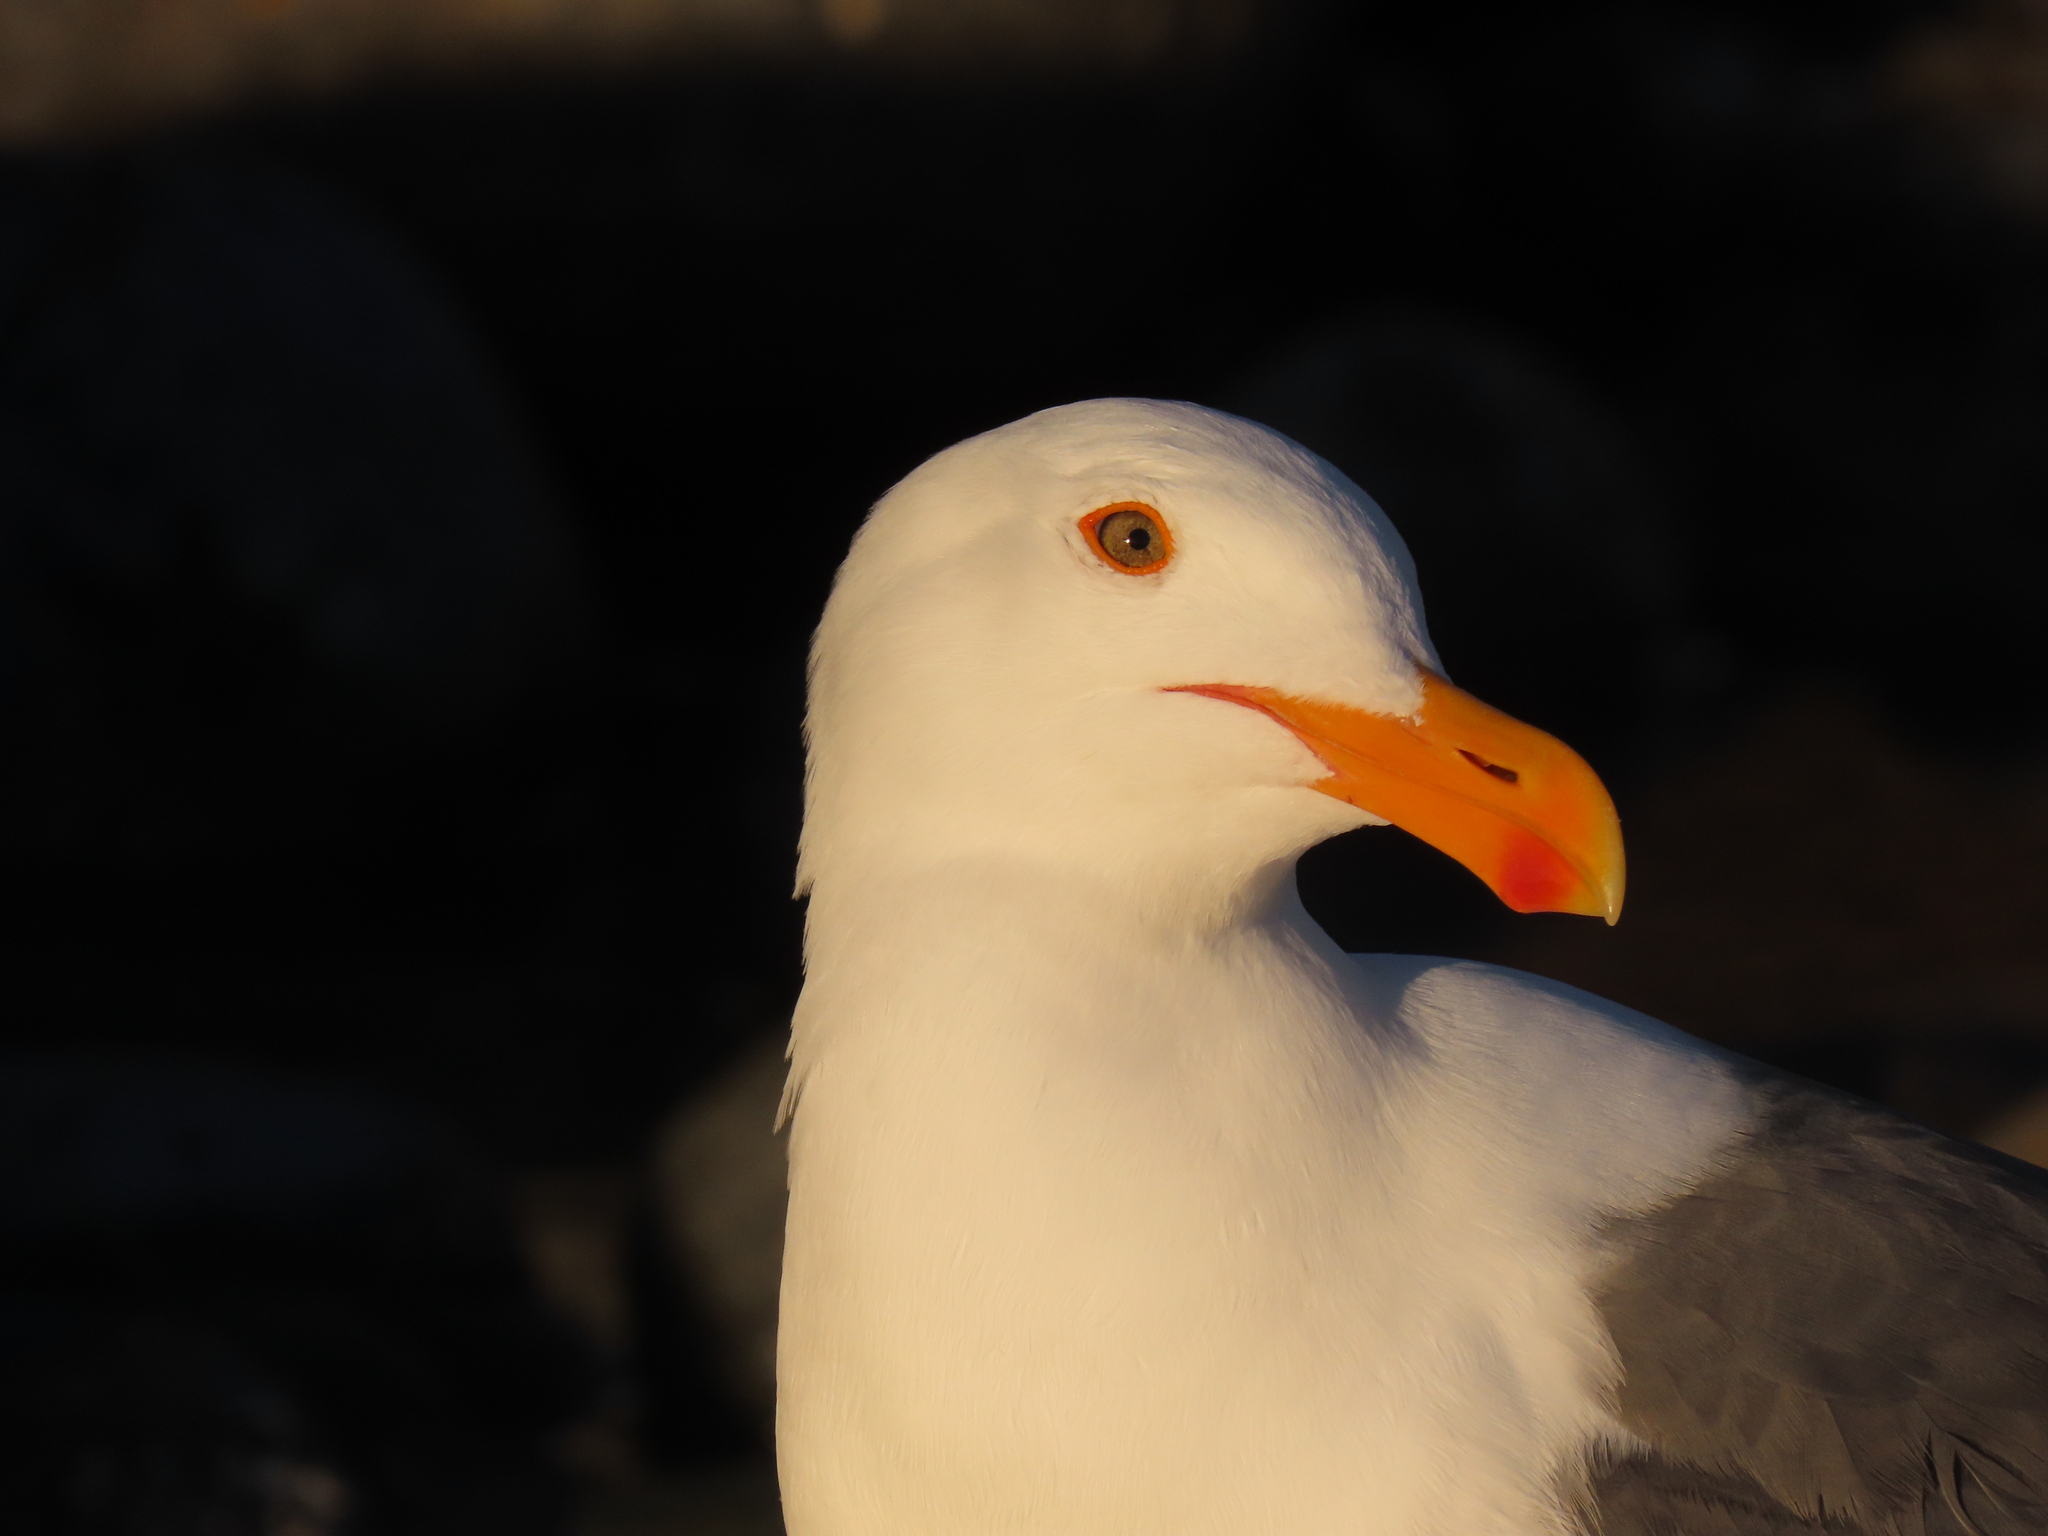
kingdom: Animalia
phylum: Chordata
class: Aves
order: Charadriiformes
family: Laridae
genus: Larus
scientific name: Larus occidentalis
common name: Western gull
